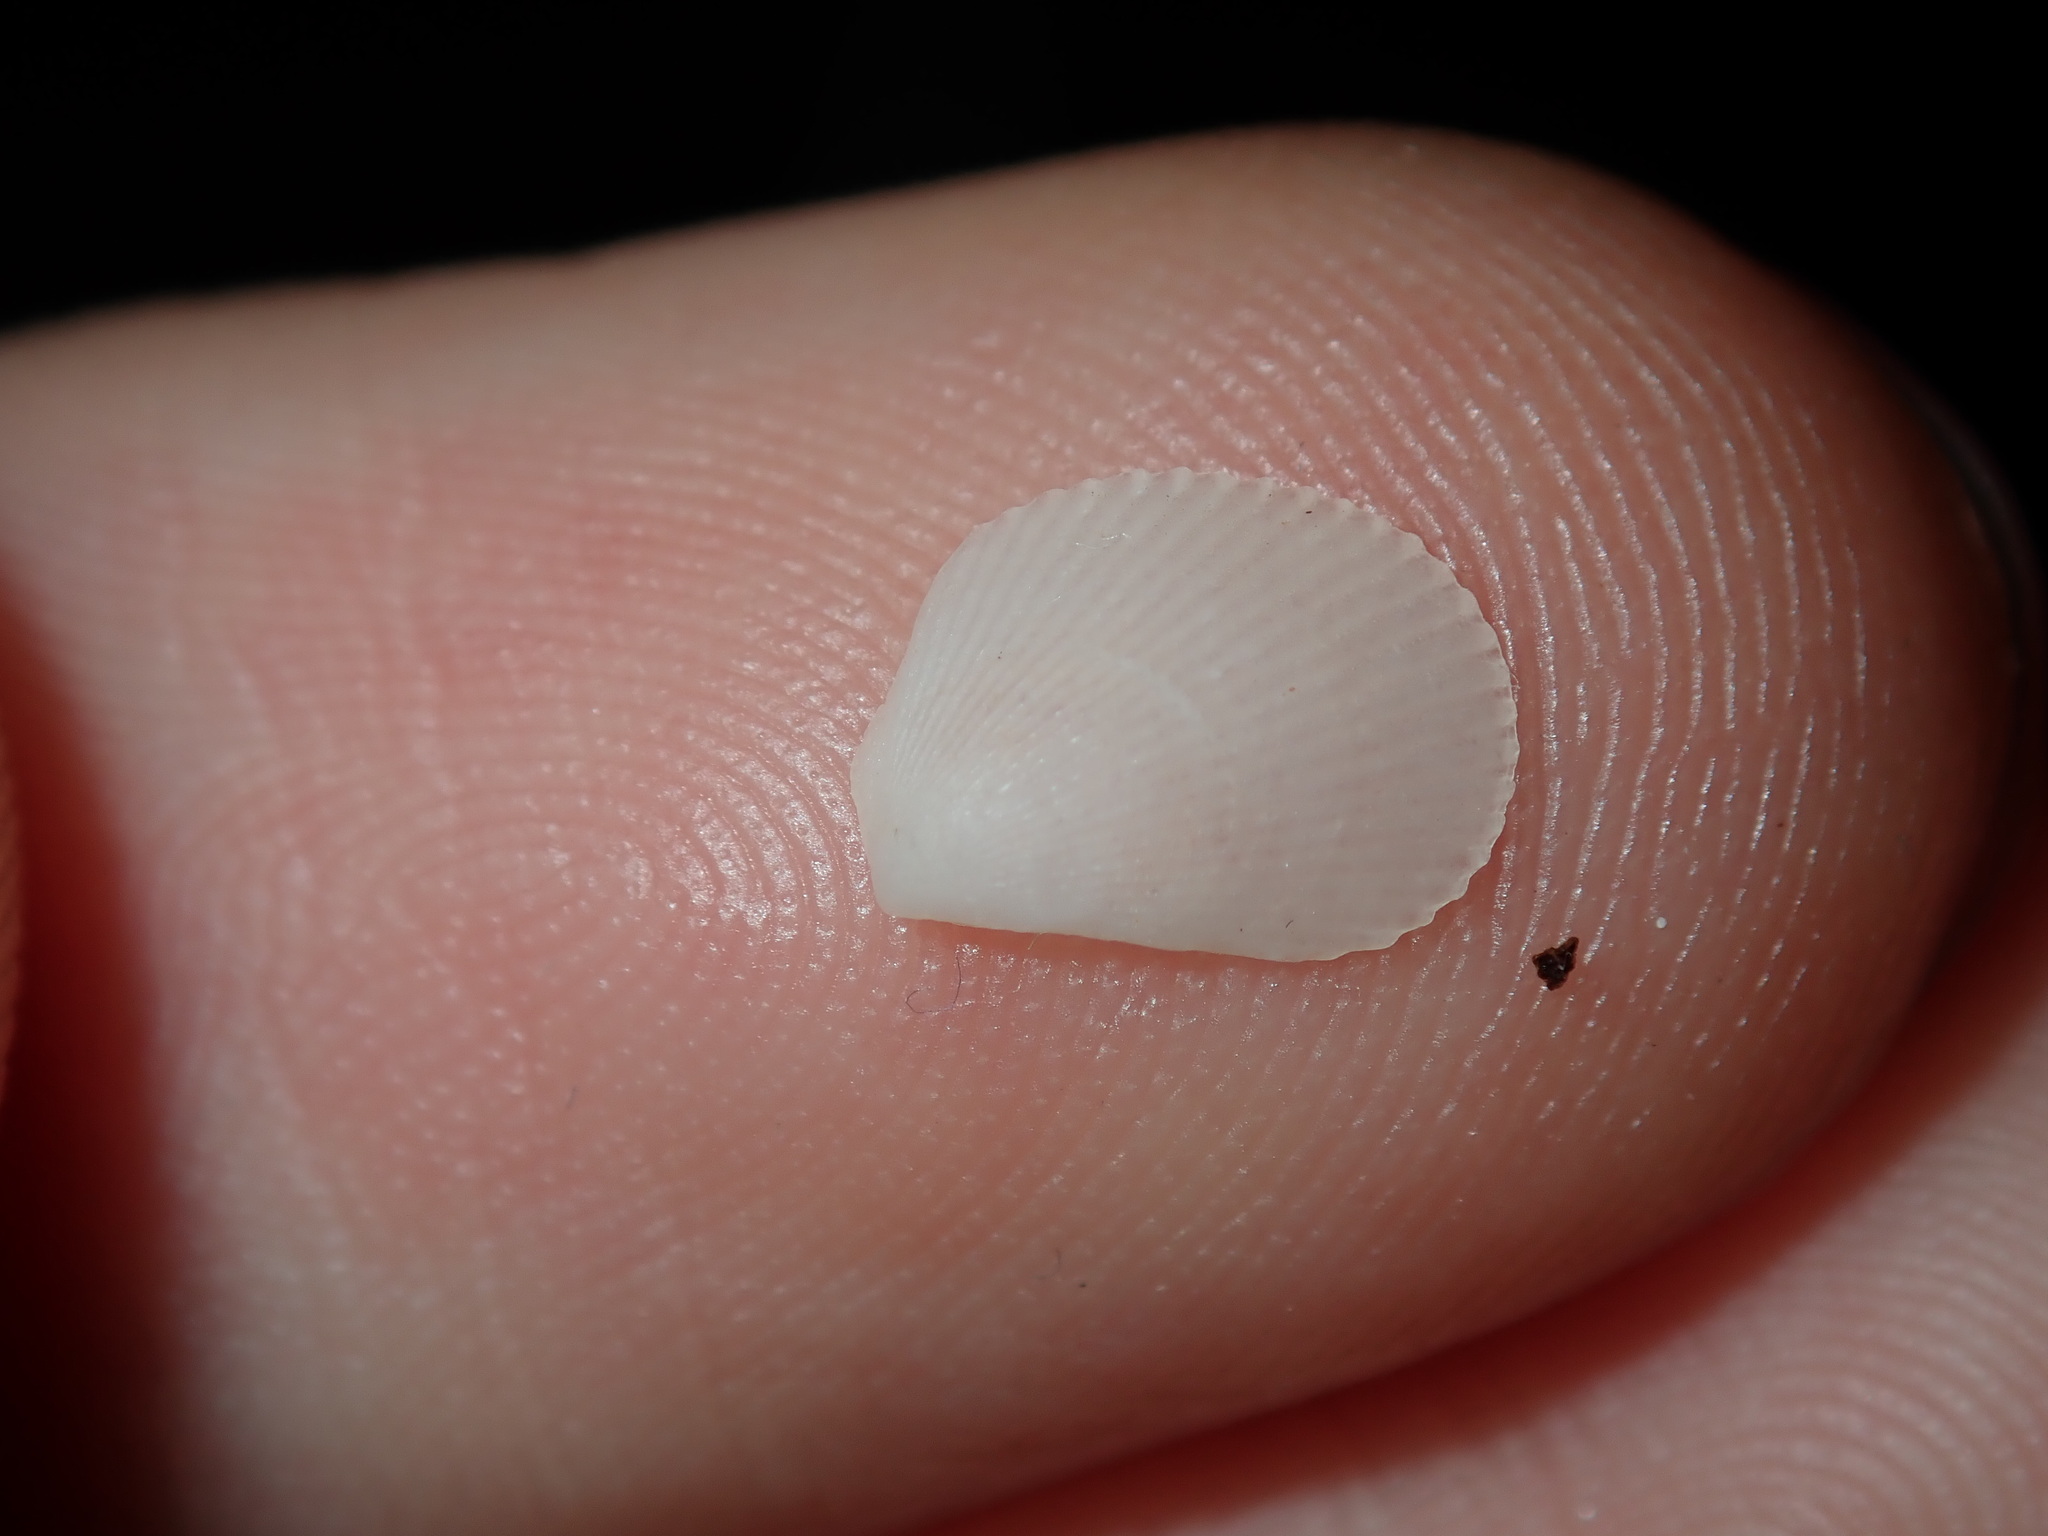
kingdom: Animalia
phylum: Mollusca
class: Bivalvia
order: Limida
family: Limidae
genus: Lima
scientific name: Lima nimbifer
